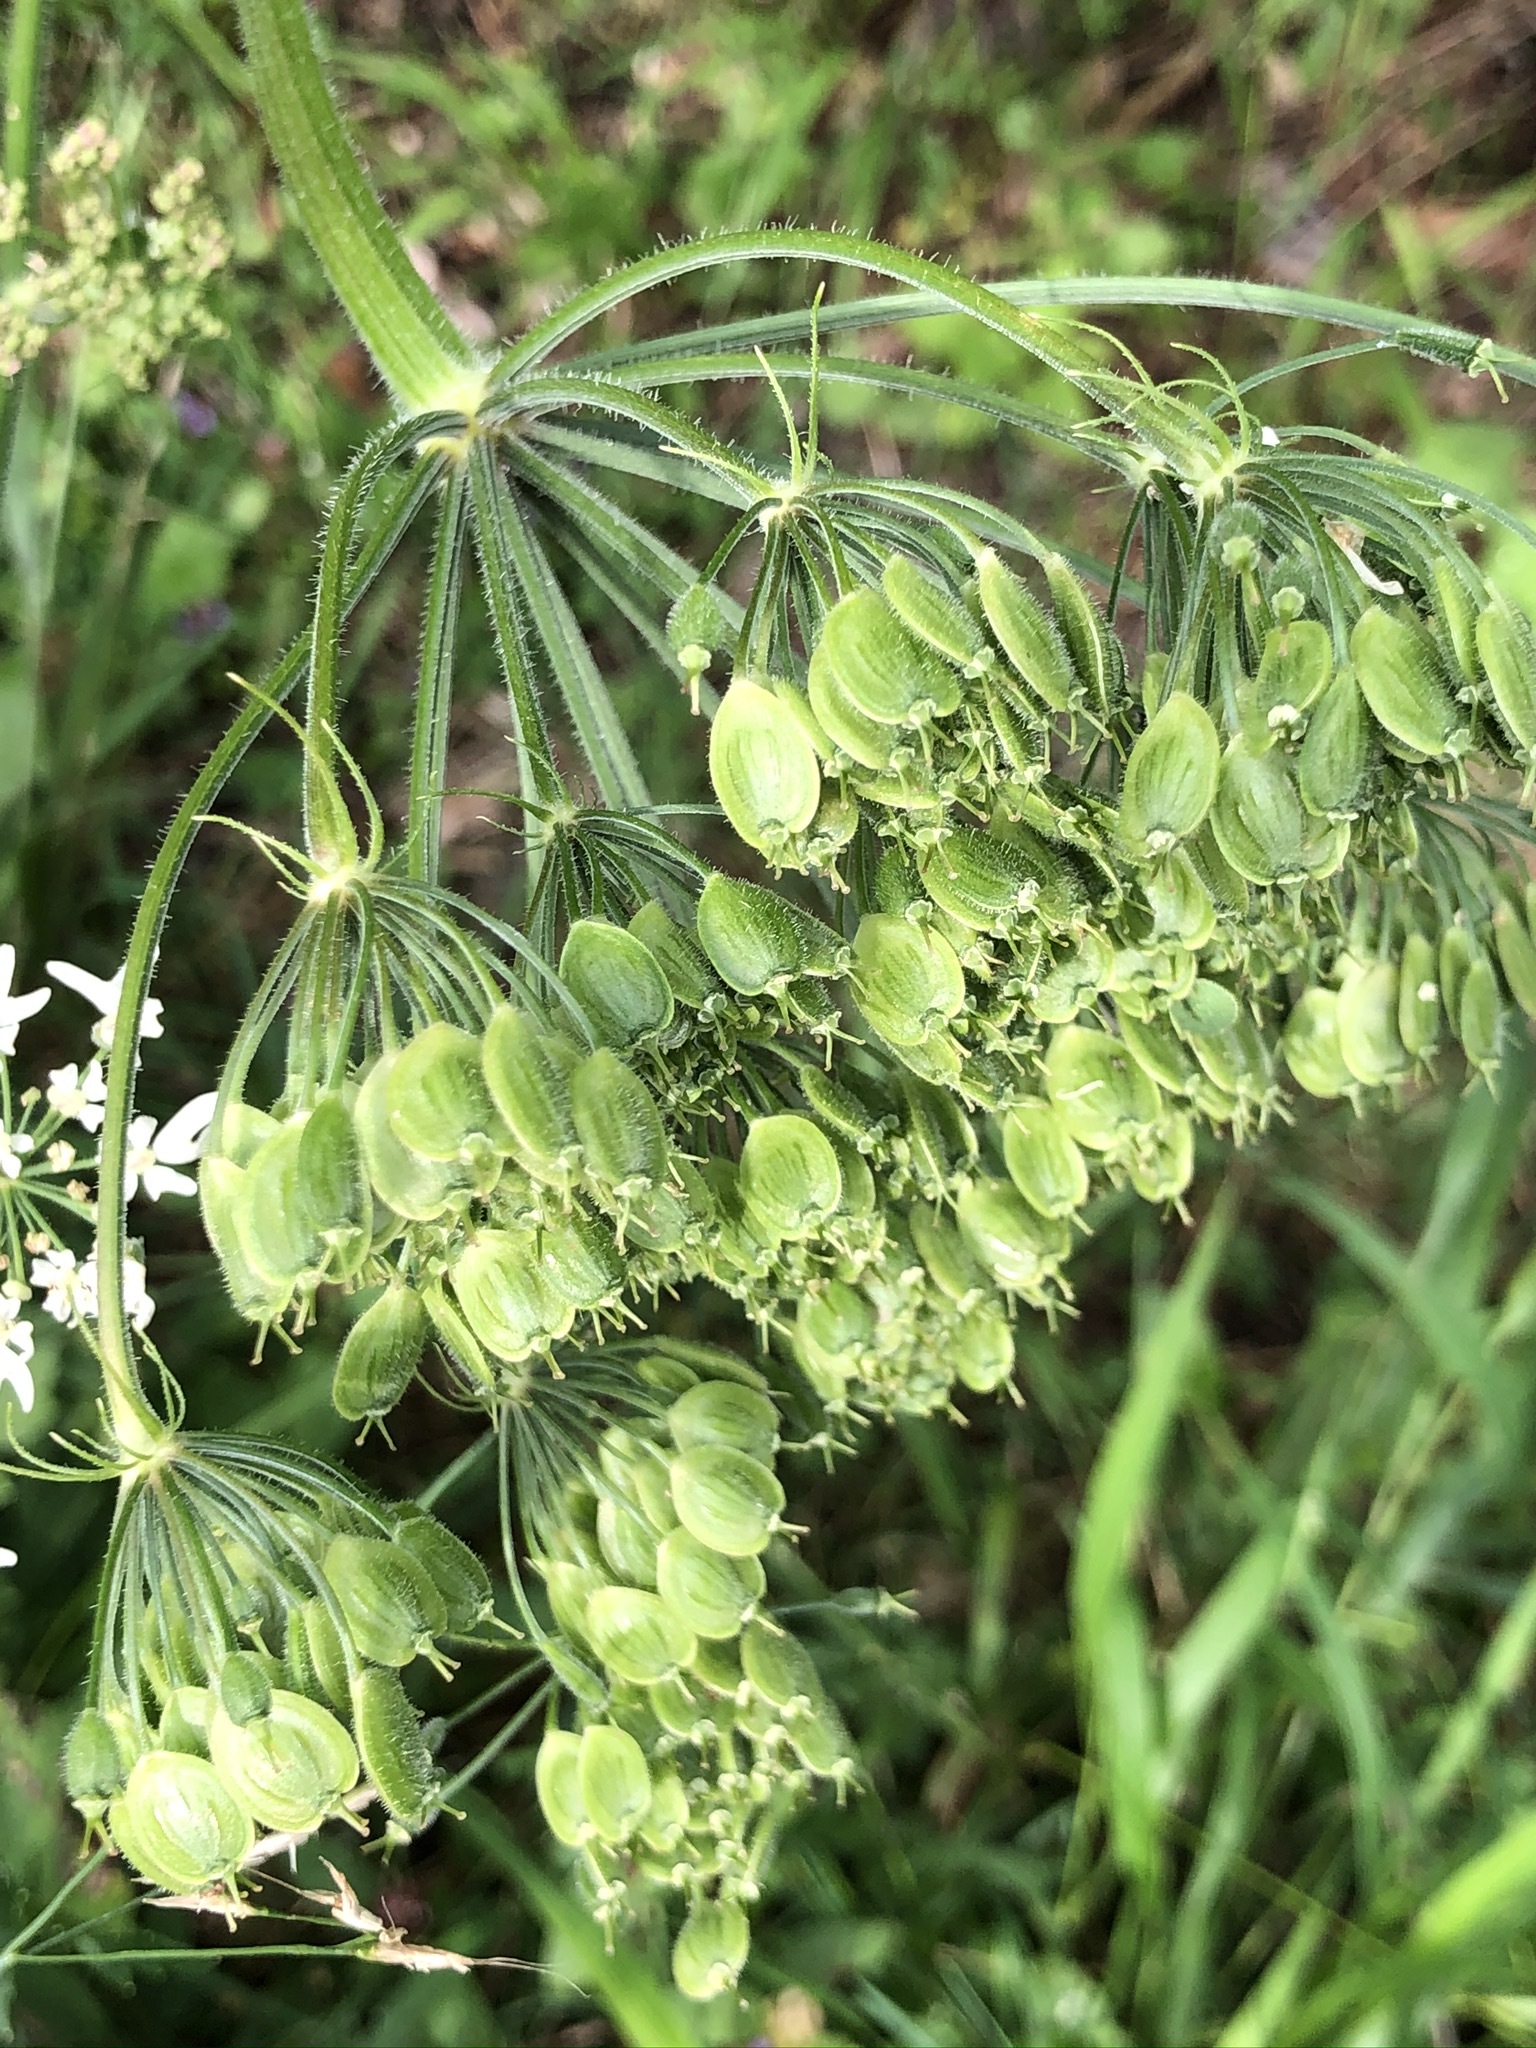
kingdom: Plantae
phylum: Tracheophyta
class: Magnoliopsida
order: Apiales
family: Apiaceae
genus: Heracleum
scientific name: Heracleum sphondylium
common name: Hogweed
